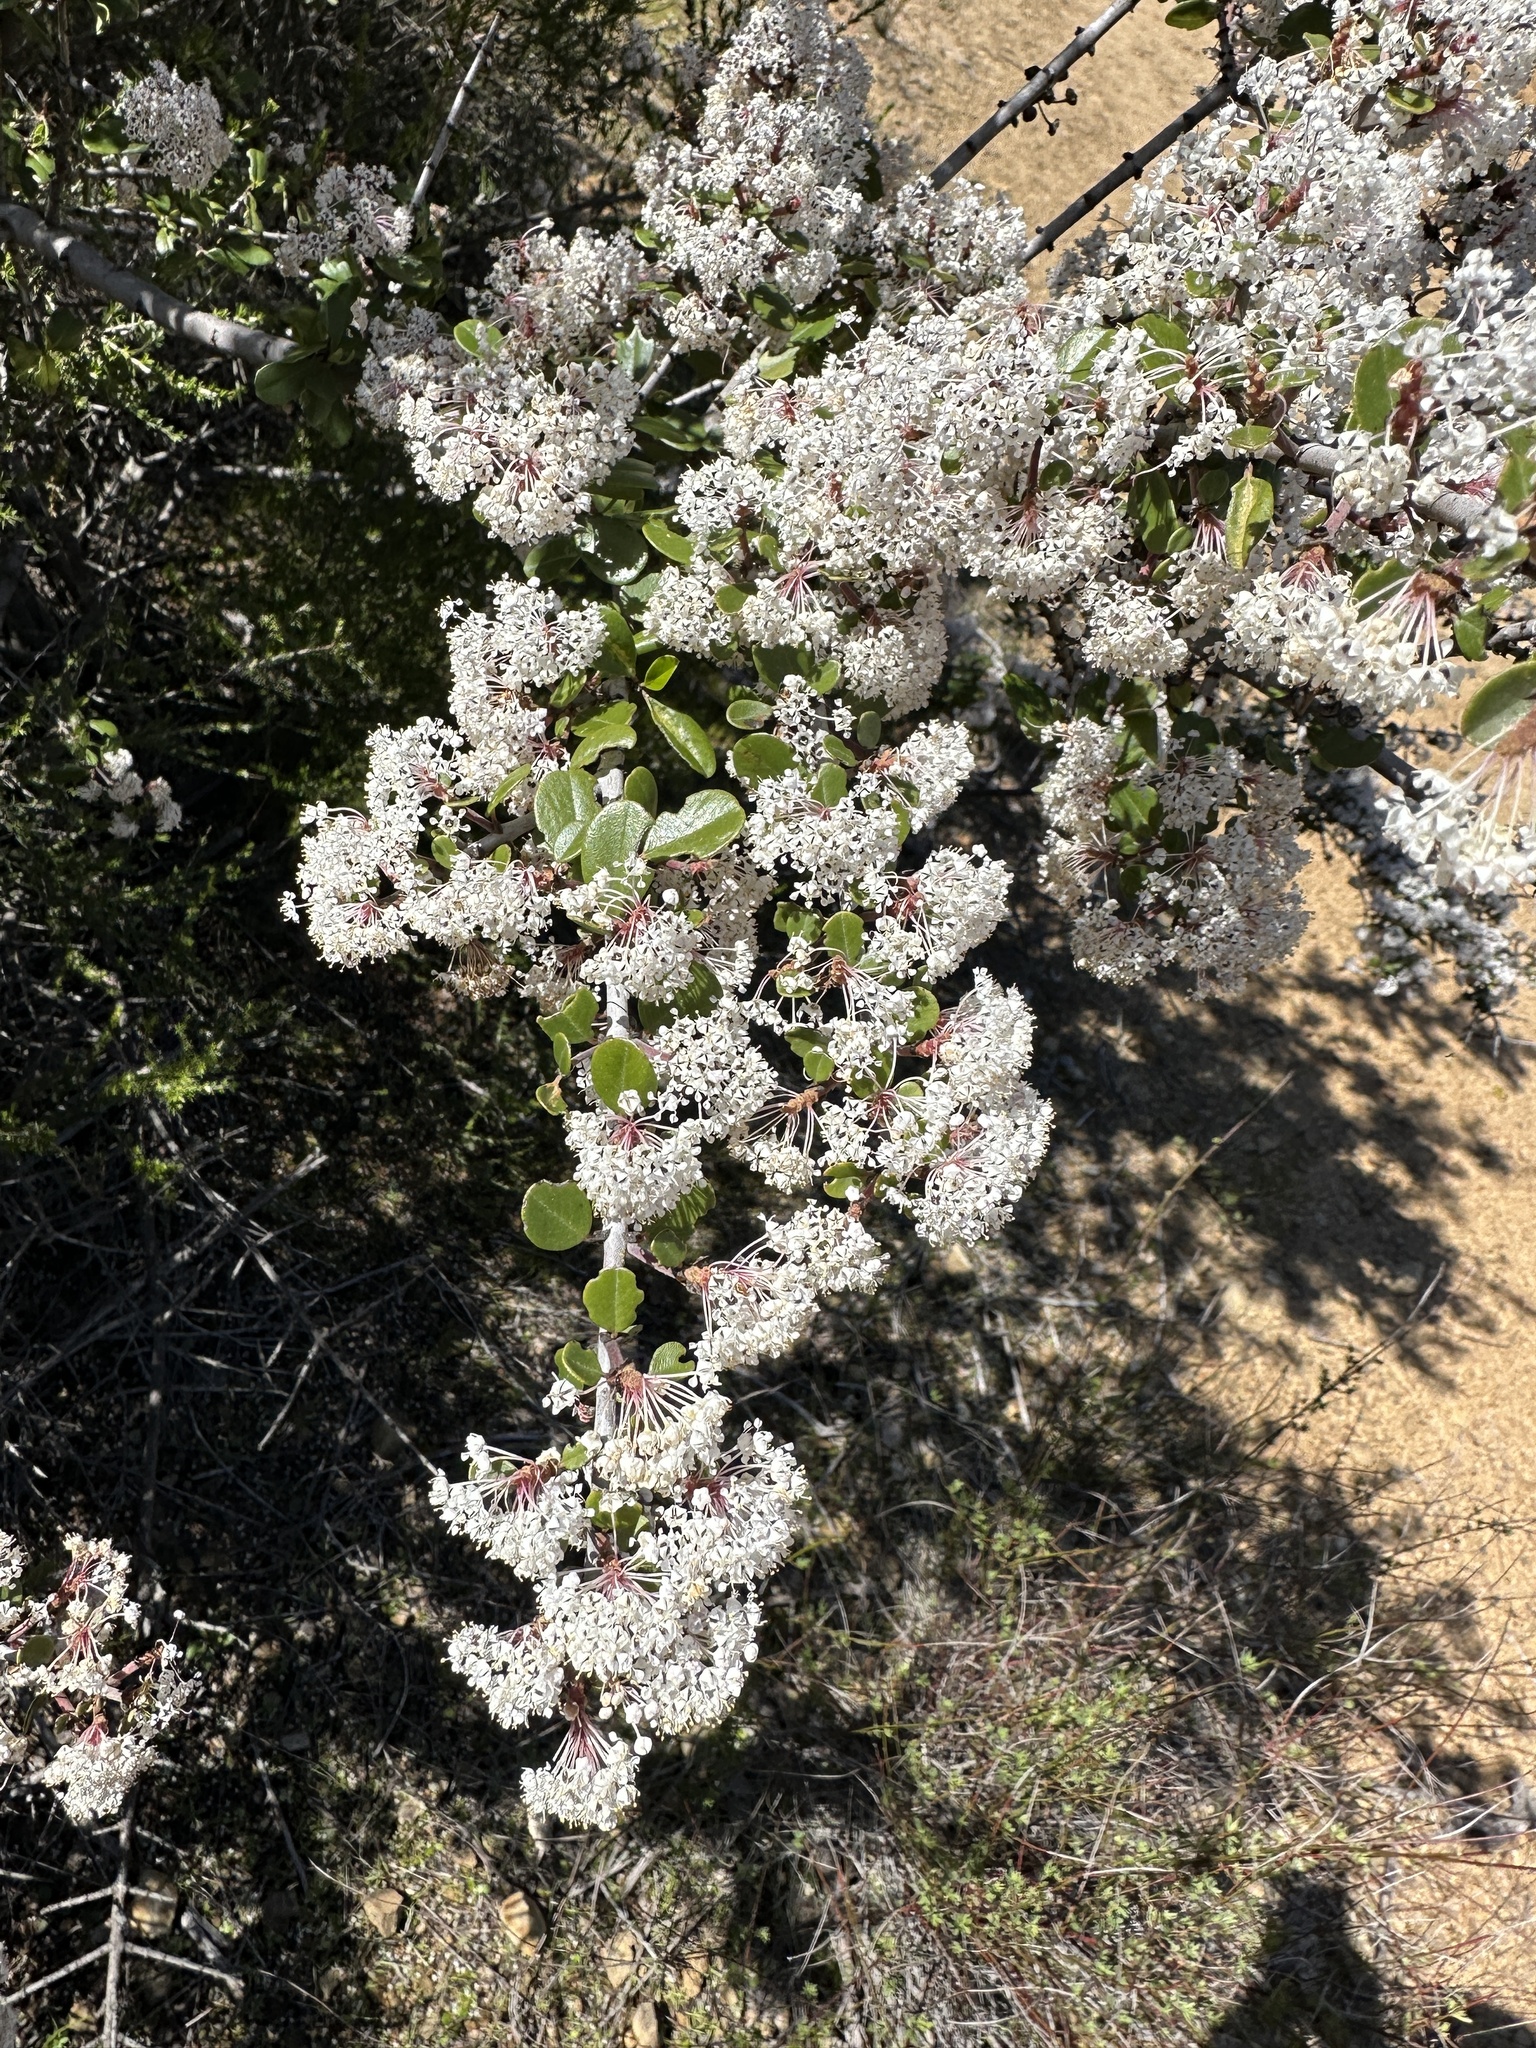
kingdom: Plantae
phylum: Tracheophyta
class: Magnoliopsida
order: Rosales
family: Rhamnaceae
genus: Ceanothus
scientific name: Ceanothus cuneatus
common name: Cuneate ceanothus
